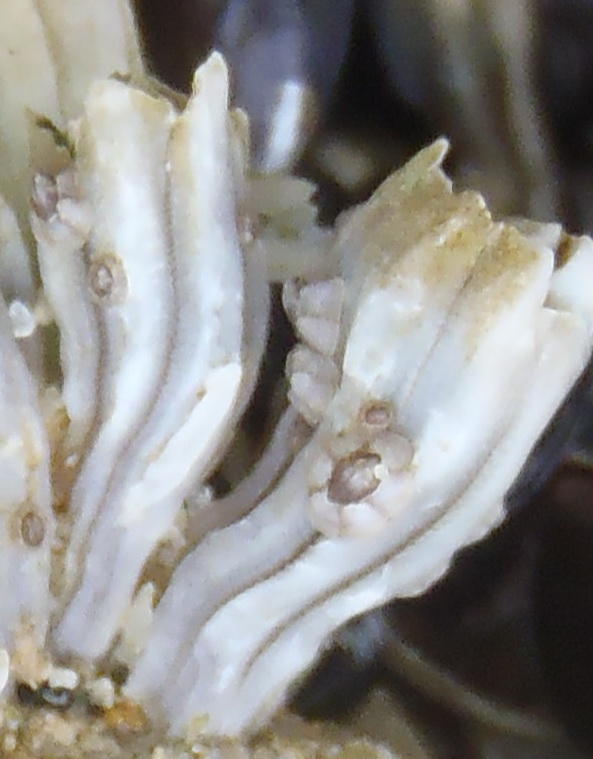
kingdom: Animalia
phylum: Arthropoda
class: Maxillopoda
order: Sessilia
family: Chthamalidae
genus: Chthamalus
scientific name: Chthamalus dentatus
